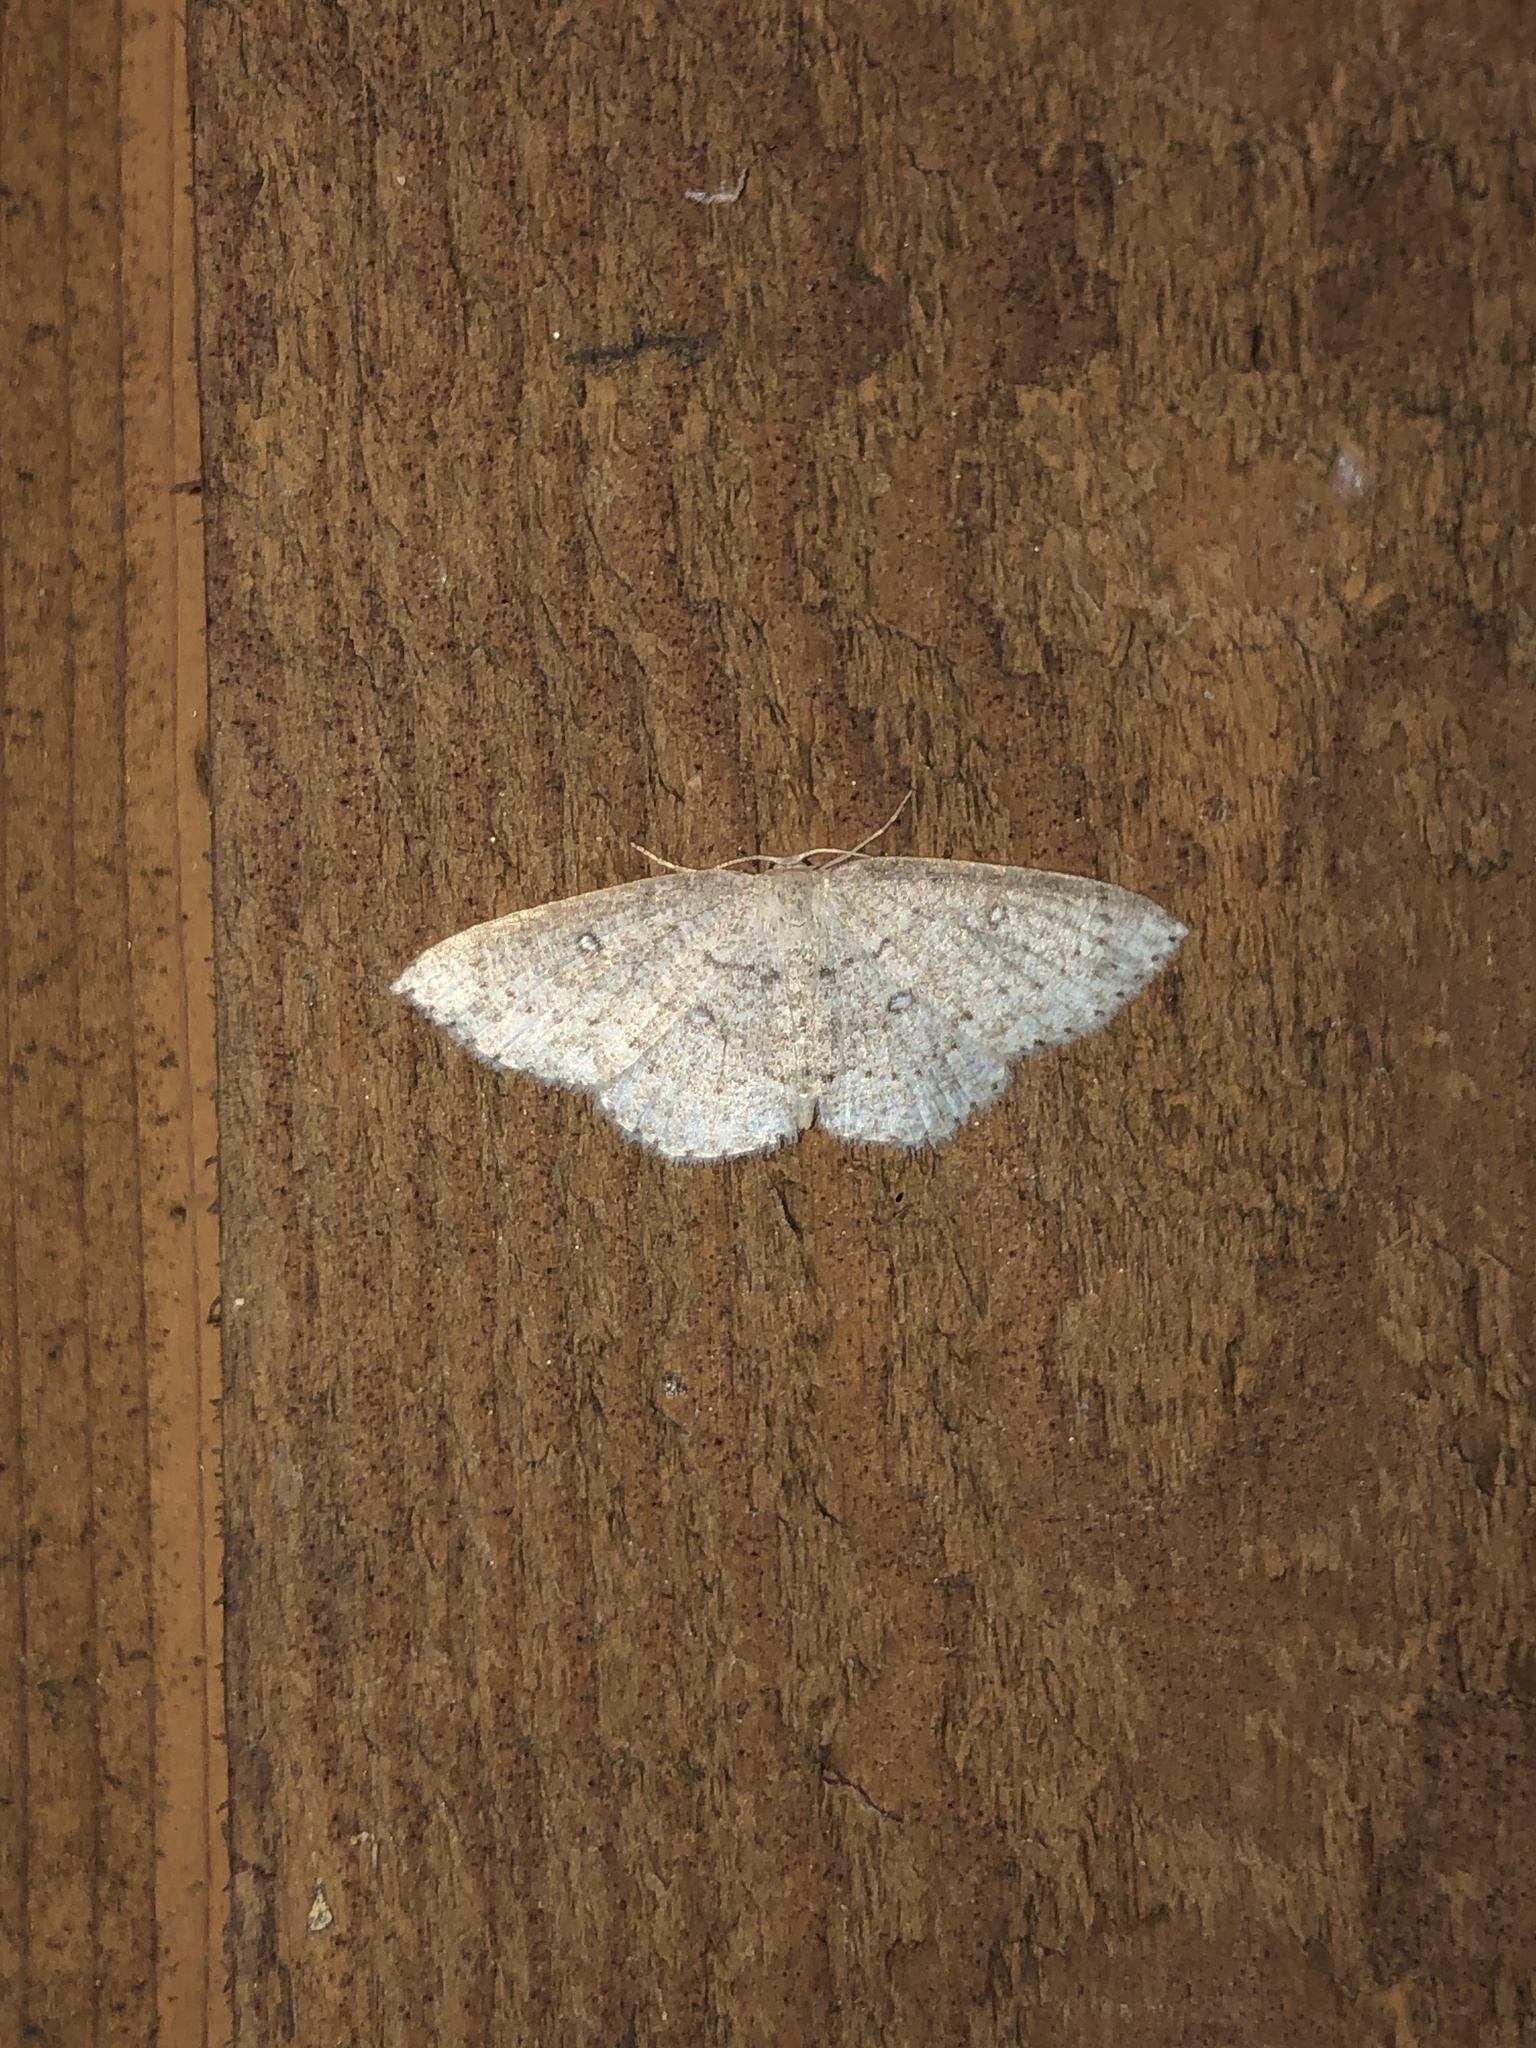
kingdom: Animalia
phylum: Arthropoda
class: Insecta
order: Lepidoptera
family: Geometridae
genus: Cyclophora
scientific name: Cyclophora pendulinaria
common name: Sweet fern geometer
